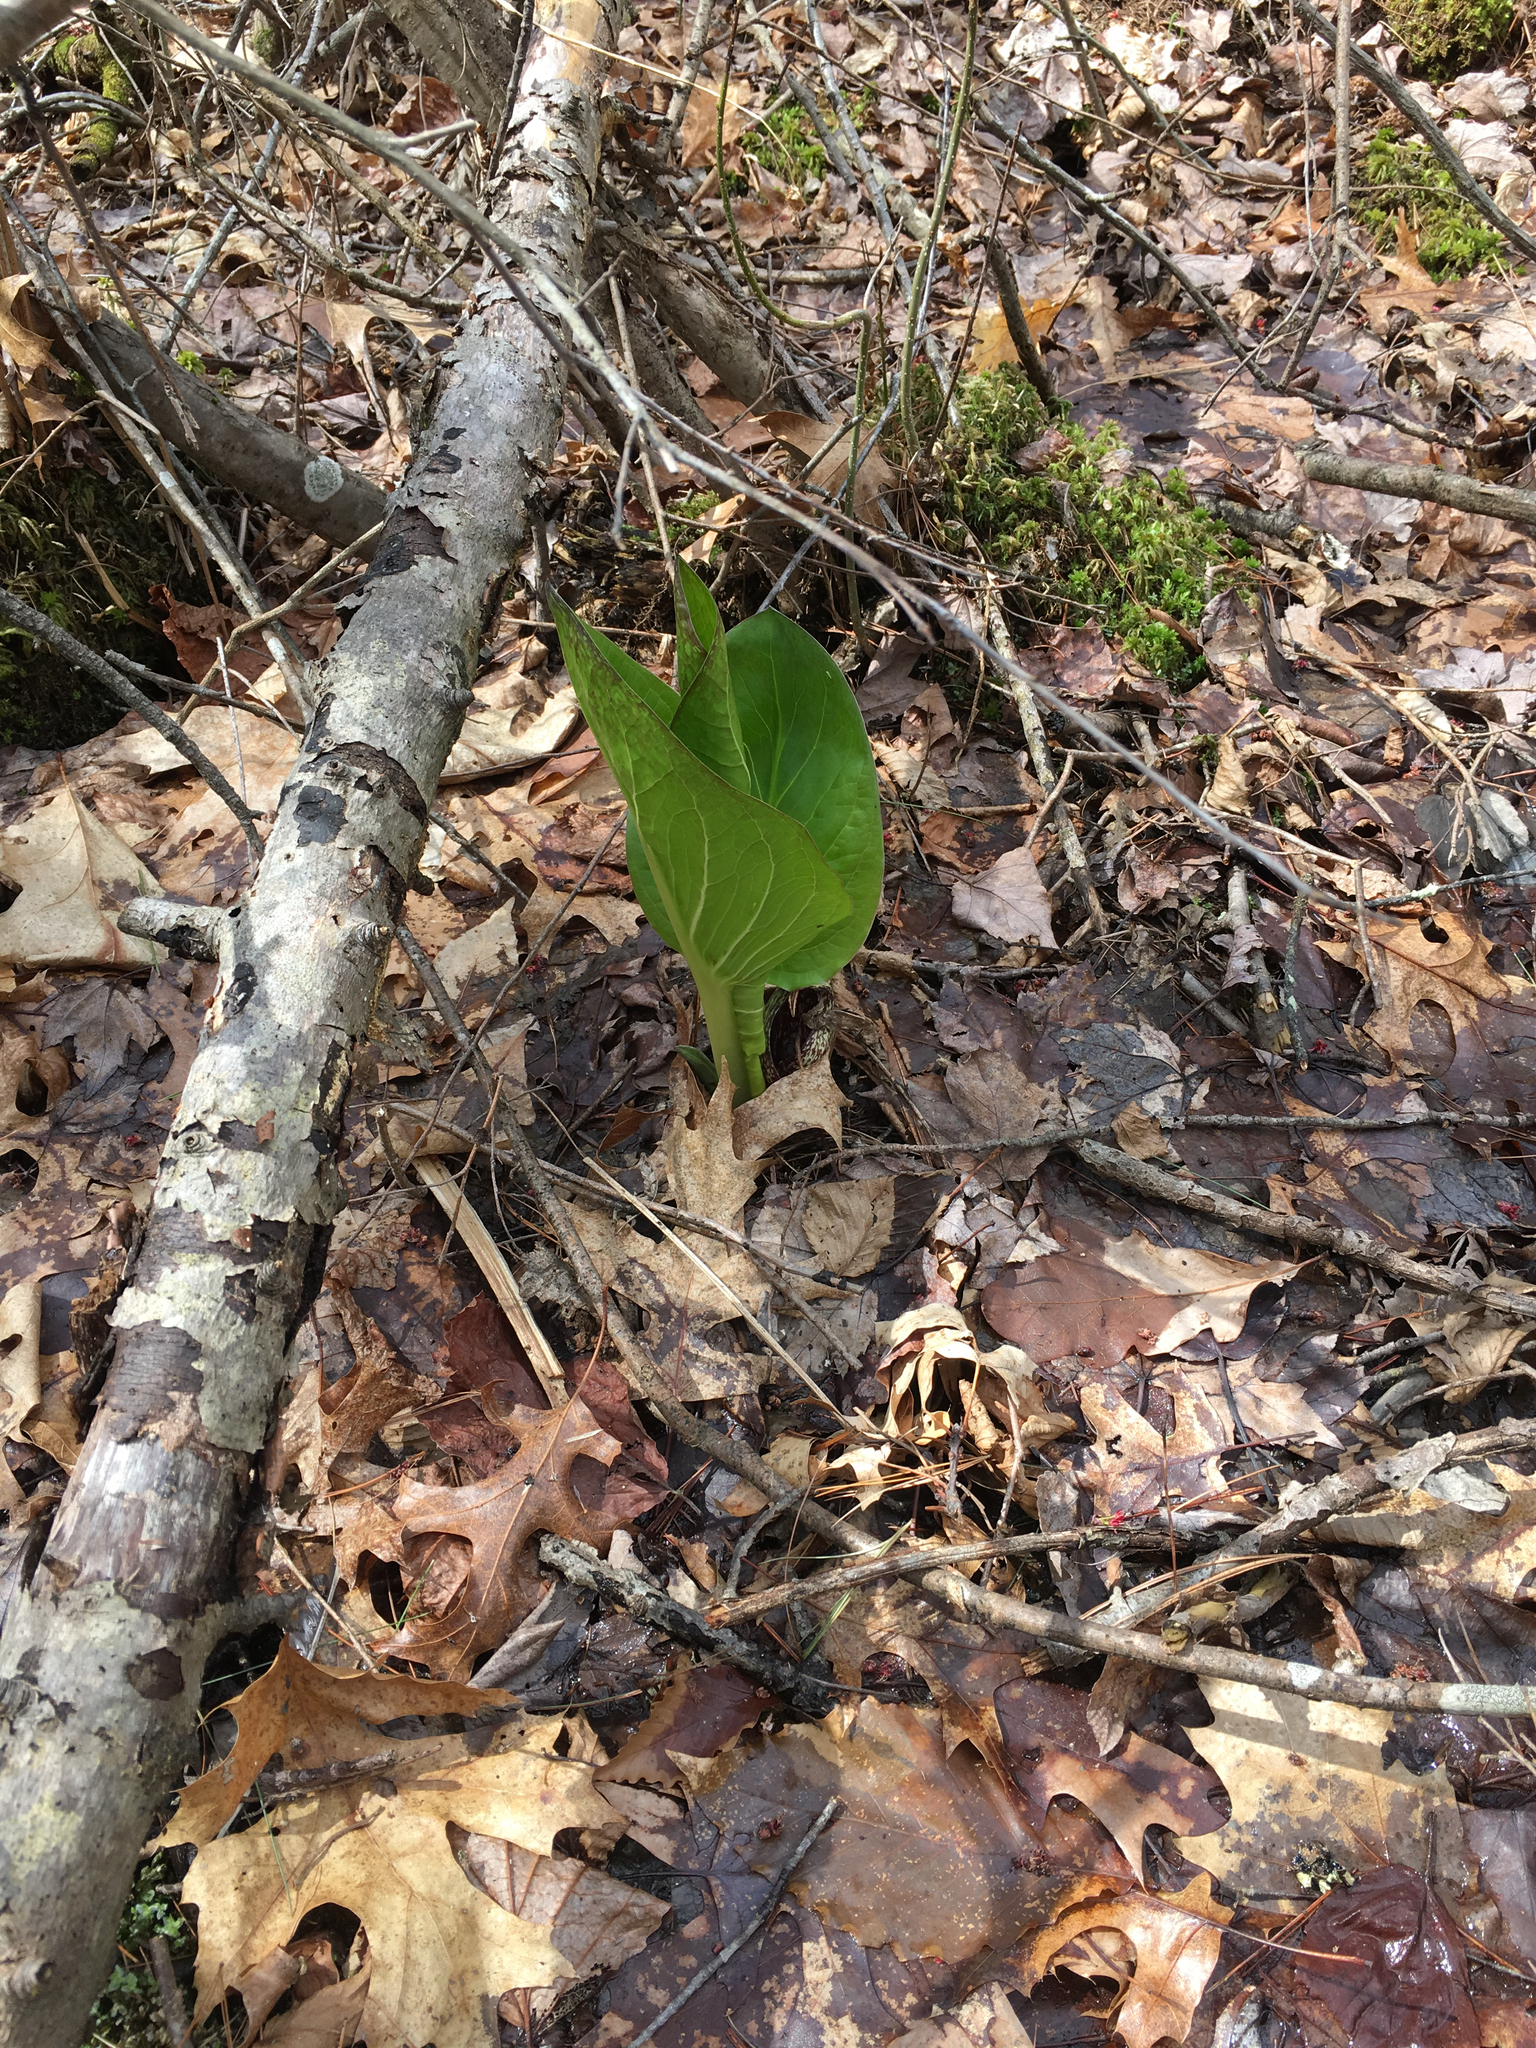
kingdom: Plantae
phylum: Tracheophyta
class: Liliopsida
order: Alismatales
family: Araceae
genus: Symplocarpus
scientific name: Symplocarpus foetidus
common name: Eastern skunk cabbage
